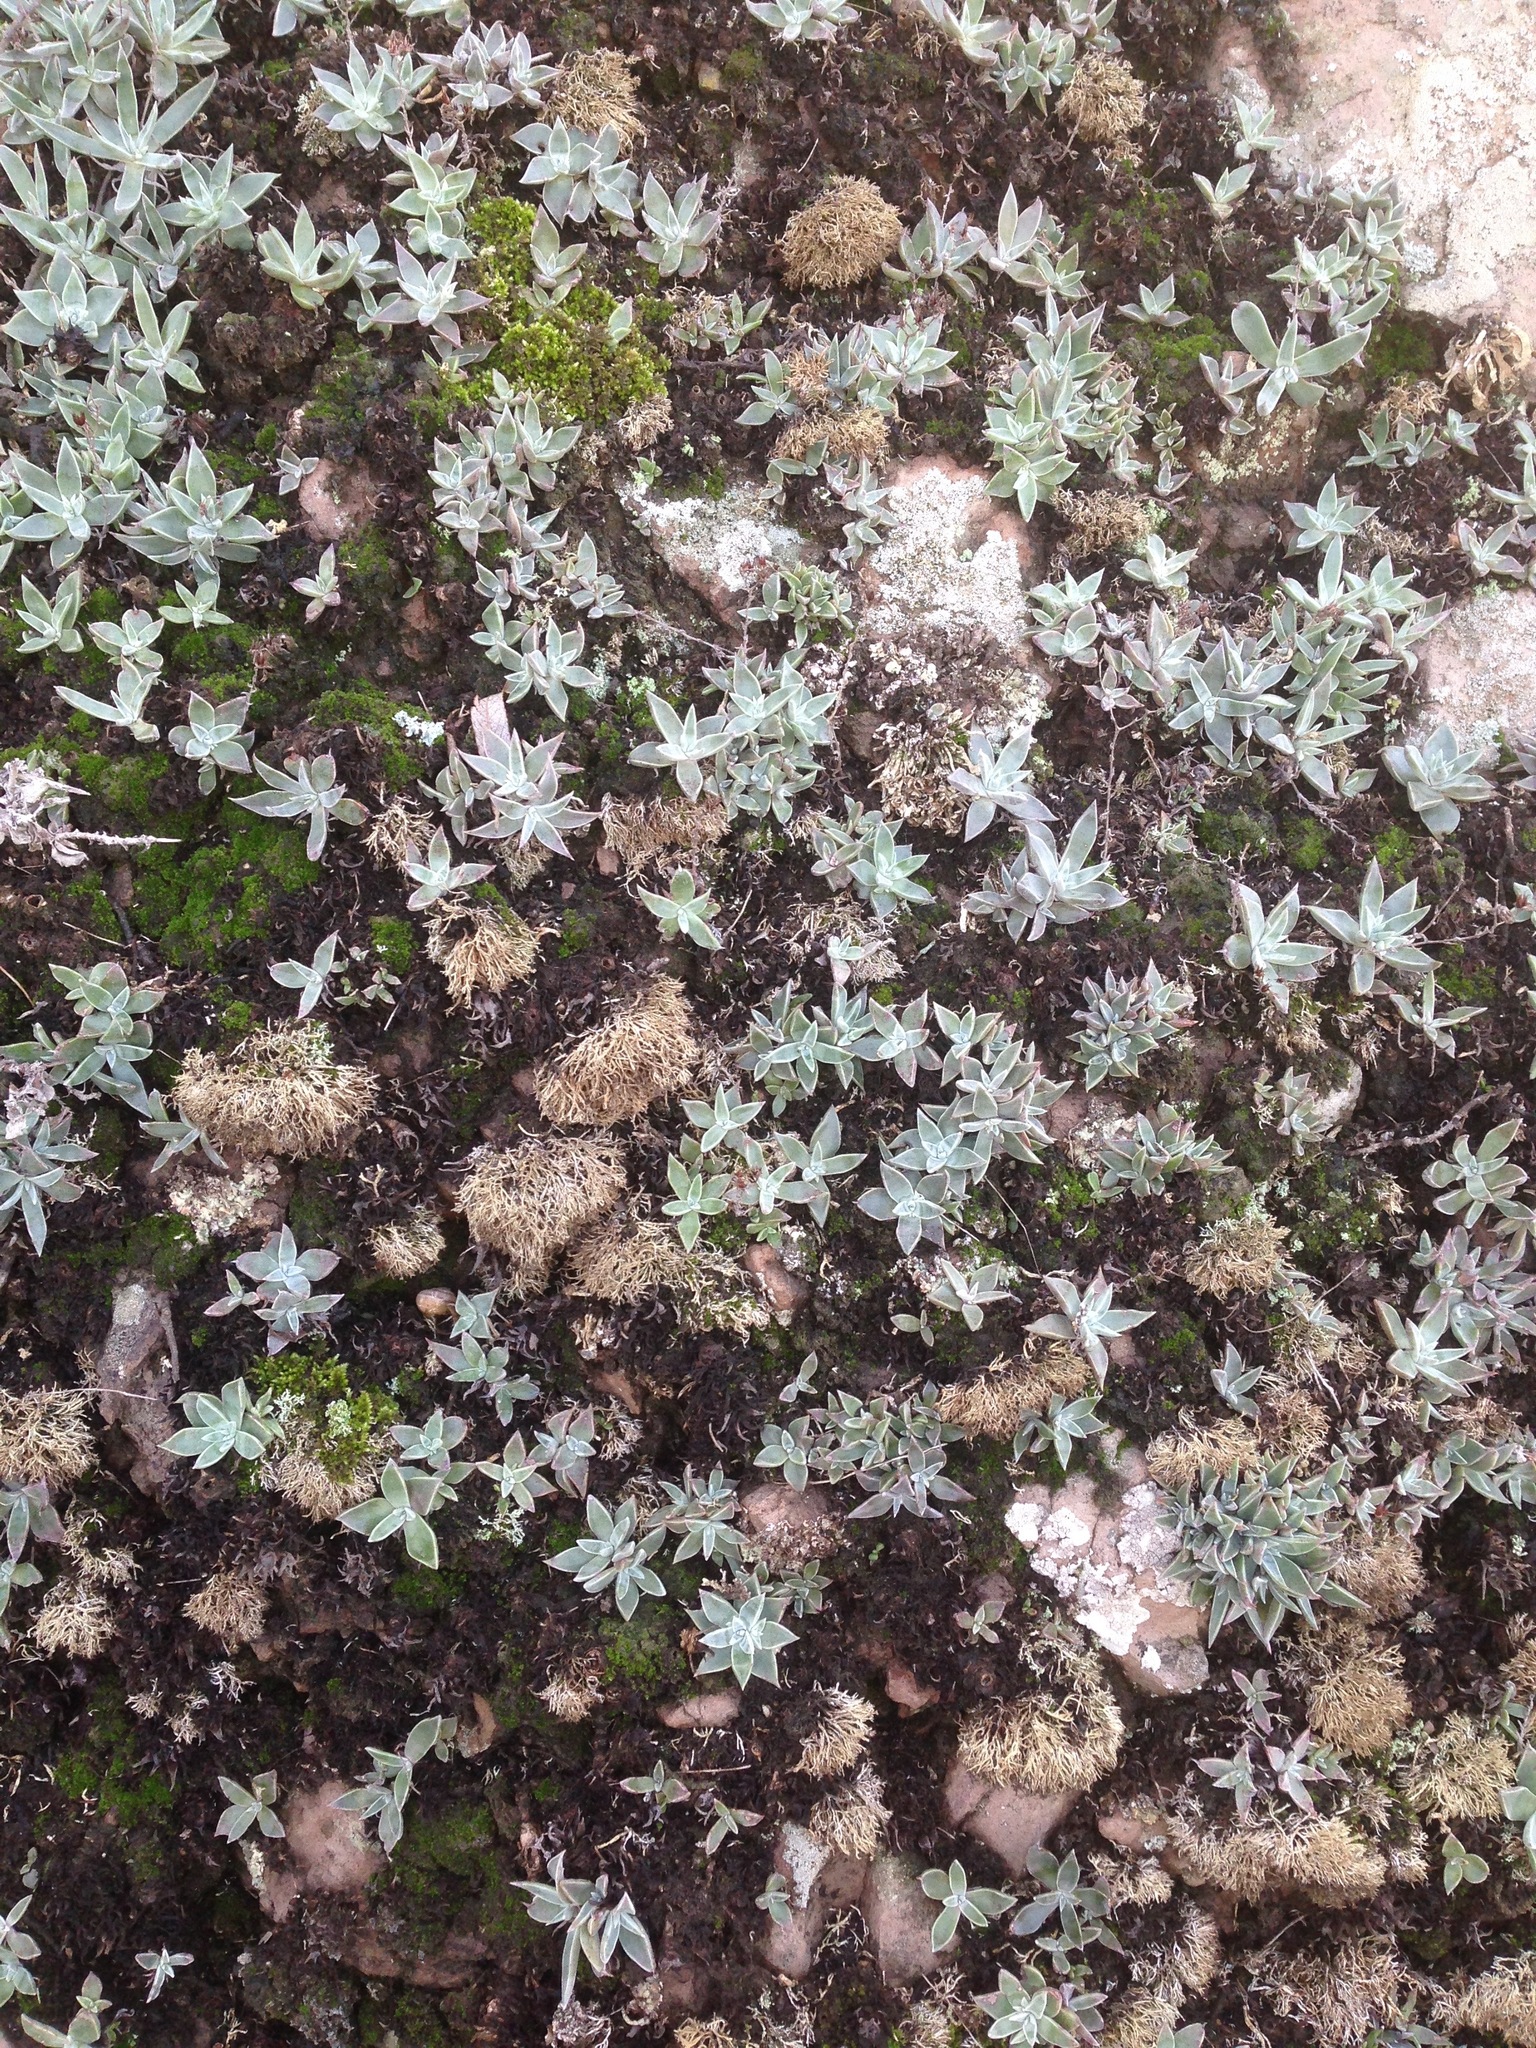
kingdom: Plantae
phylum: Tracheophyta
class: Magnoliopsida
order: Saxifragales
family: Crassulaceae
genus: Dudleya
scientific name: Dudleya verityi
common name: Verity dudleya
